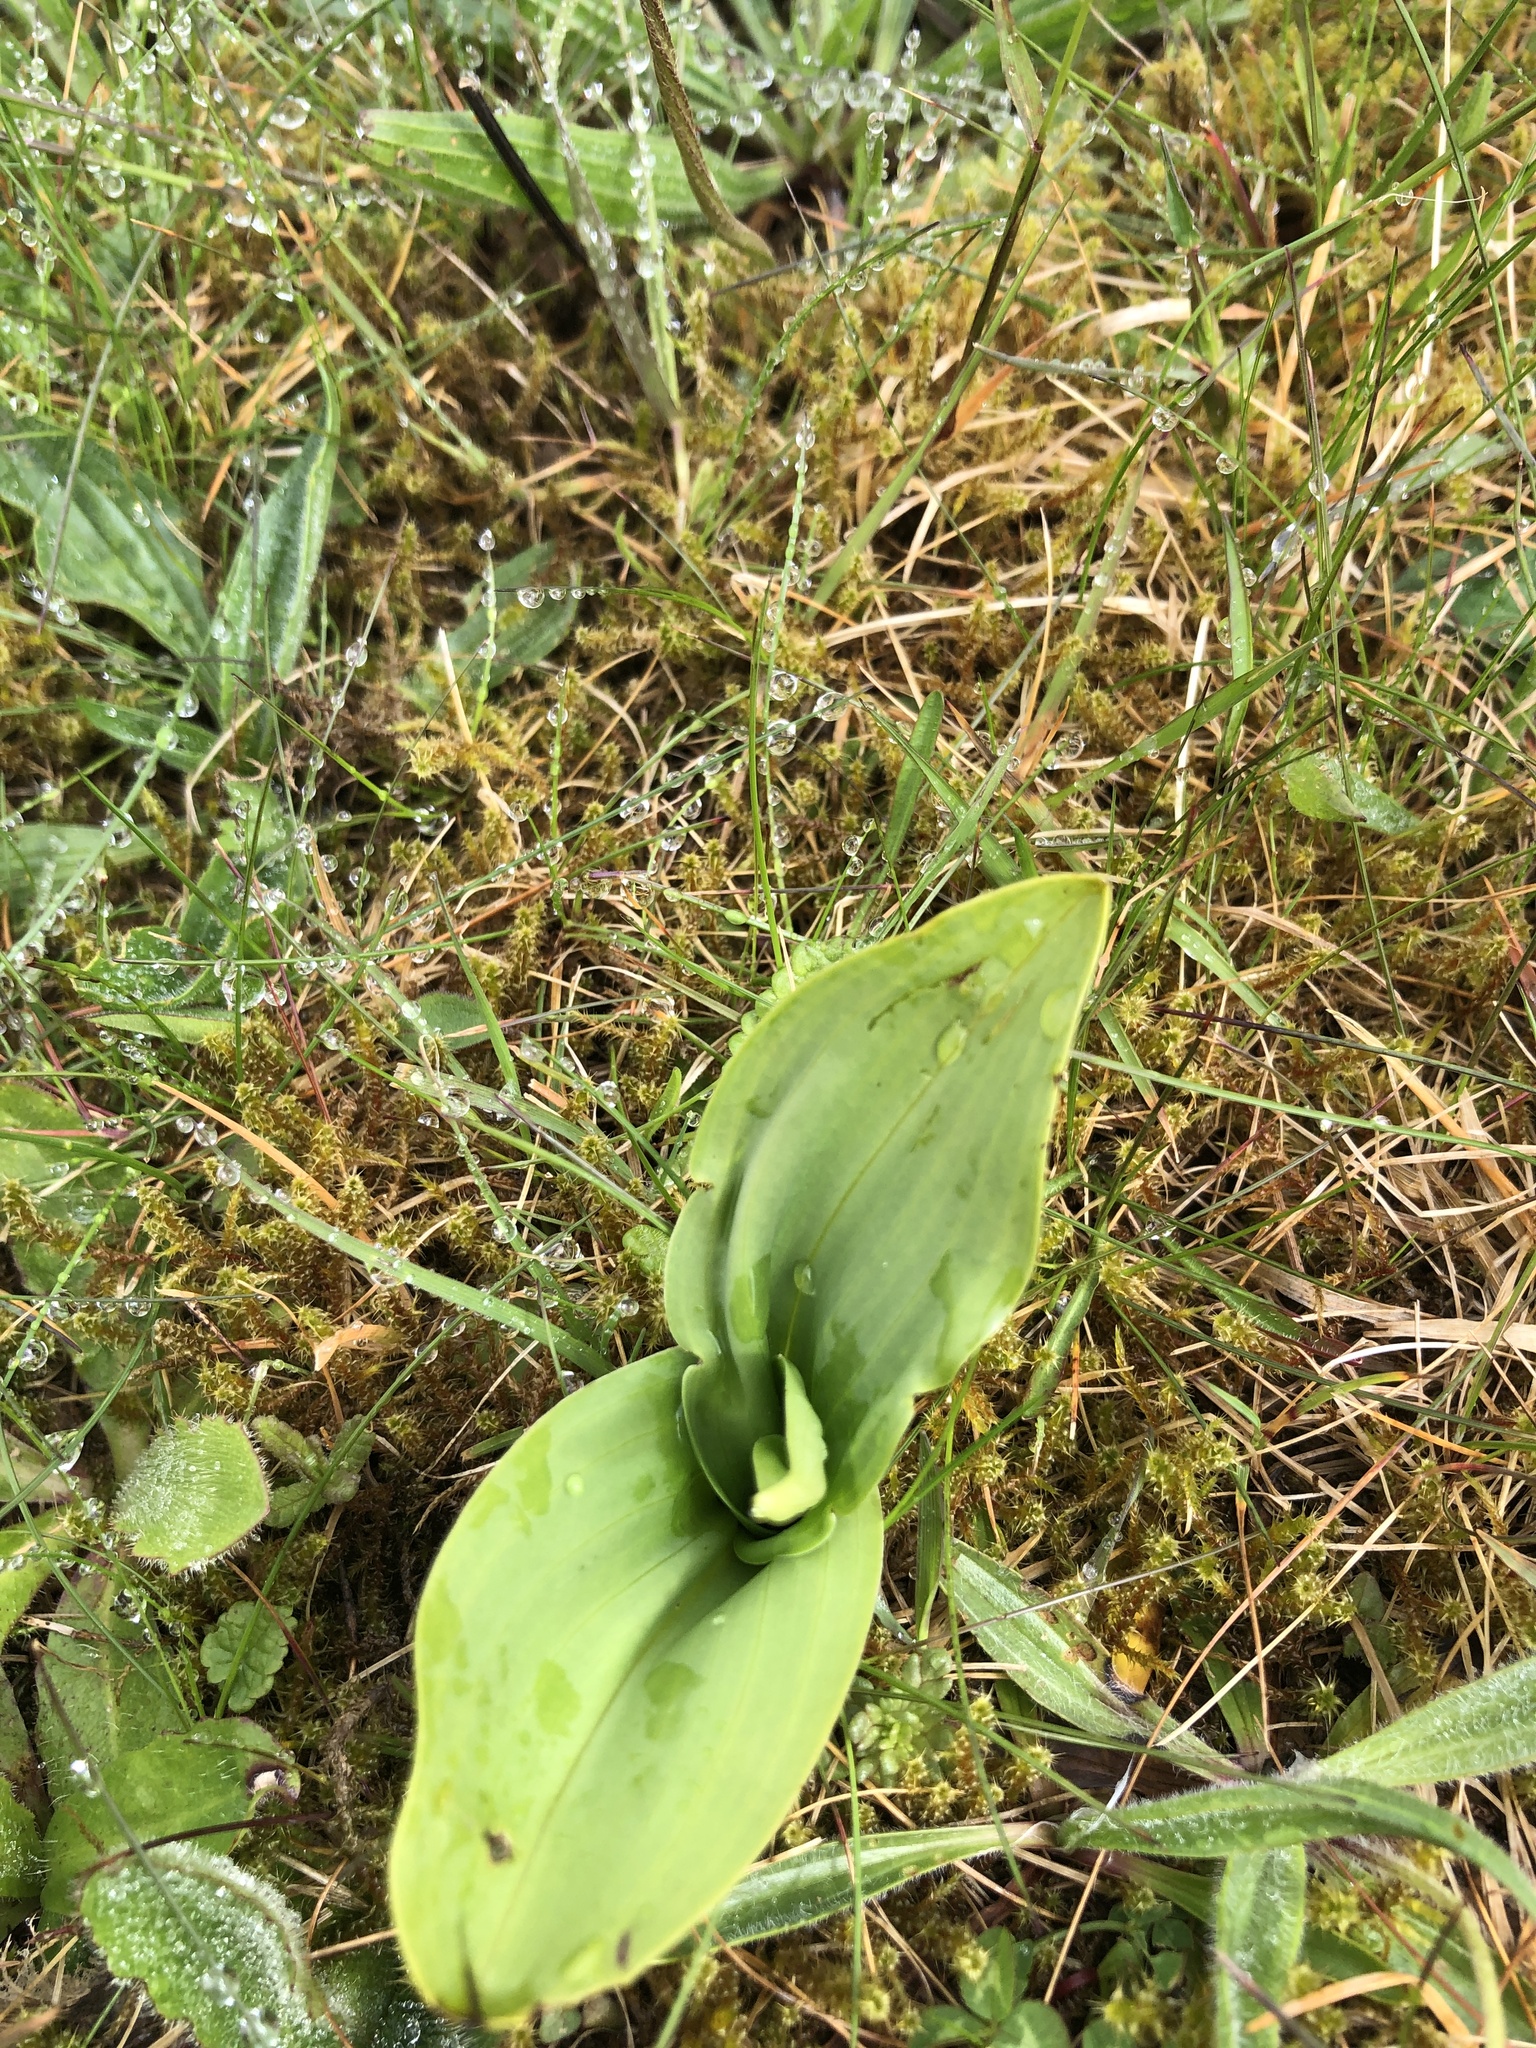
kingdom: Plantae
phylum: Tracheophyta
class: Liliopsida
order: Asparagales
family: Orchidaceae
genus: Platanthera
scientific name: Platanthera chlorantha
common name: Greater butterfly-orchid
